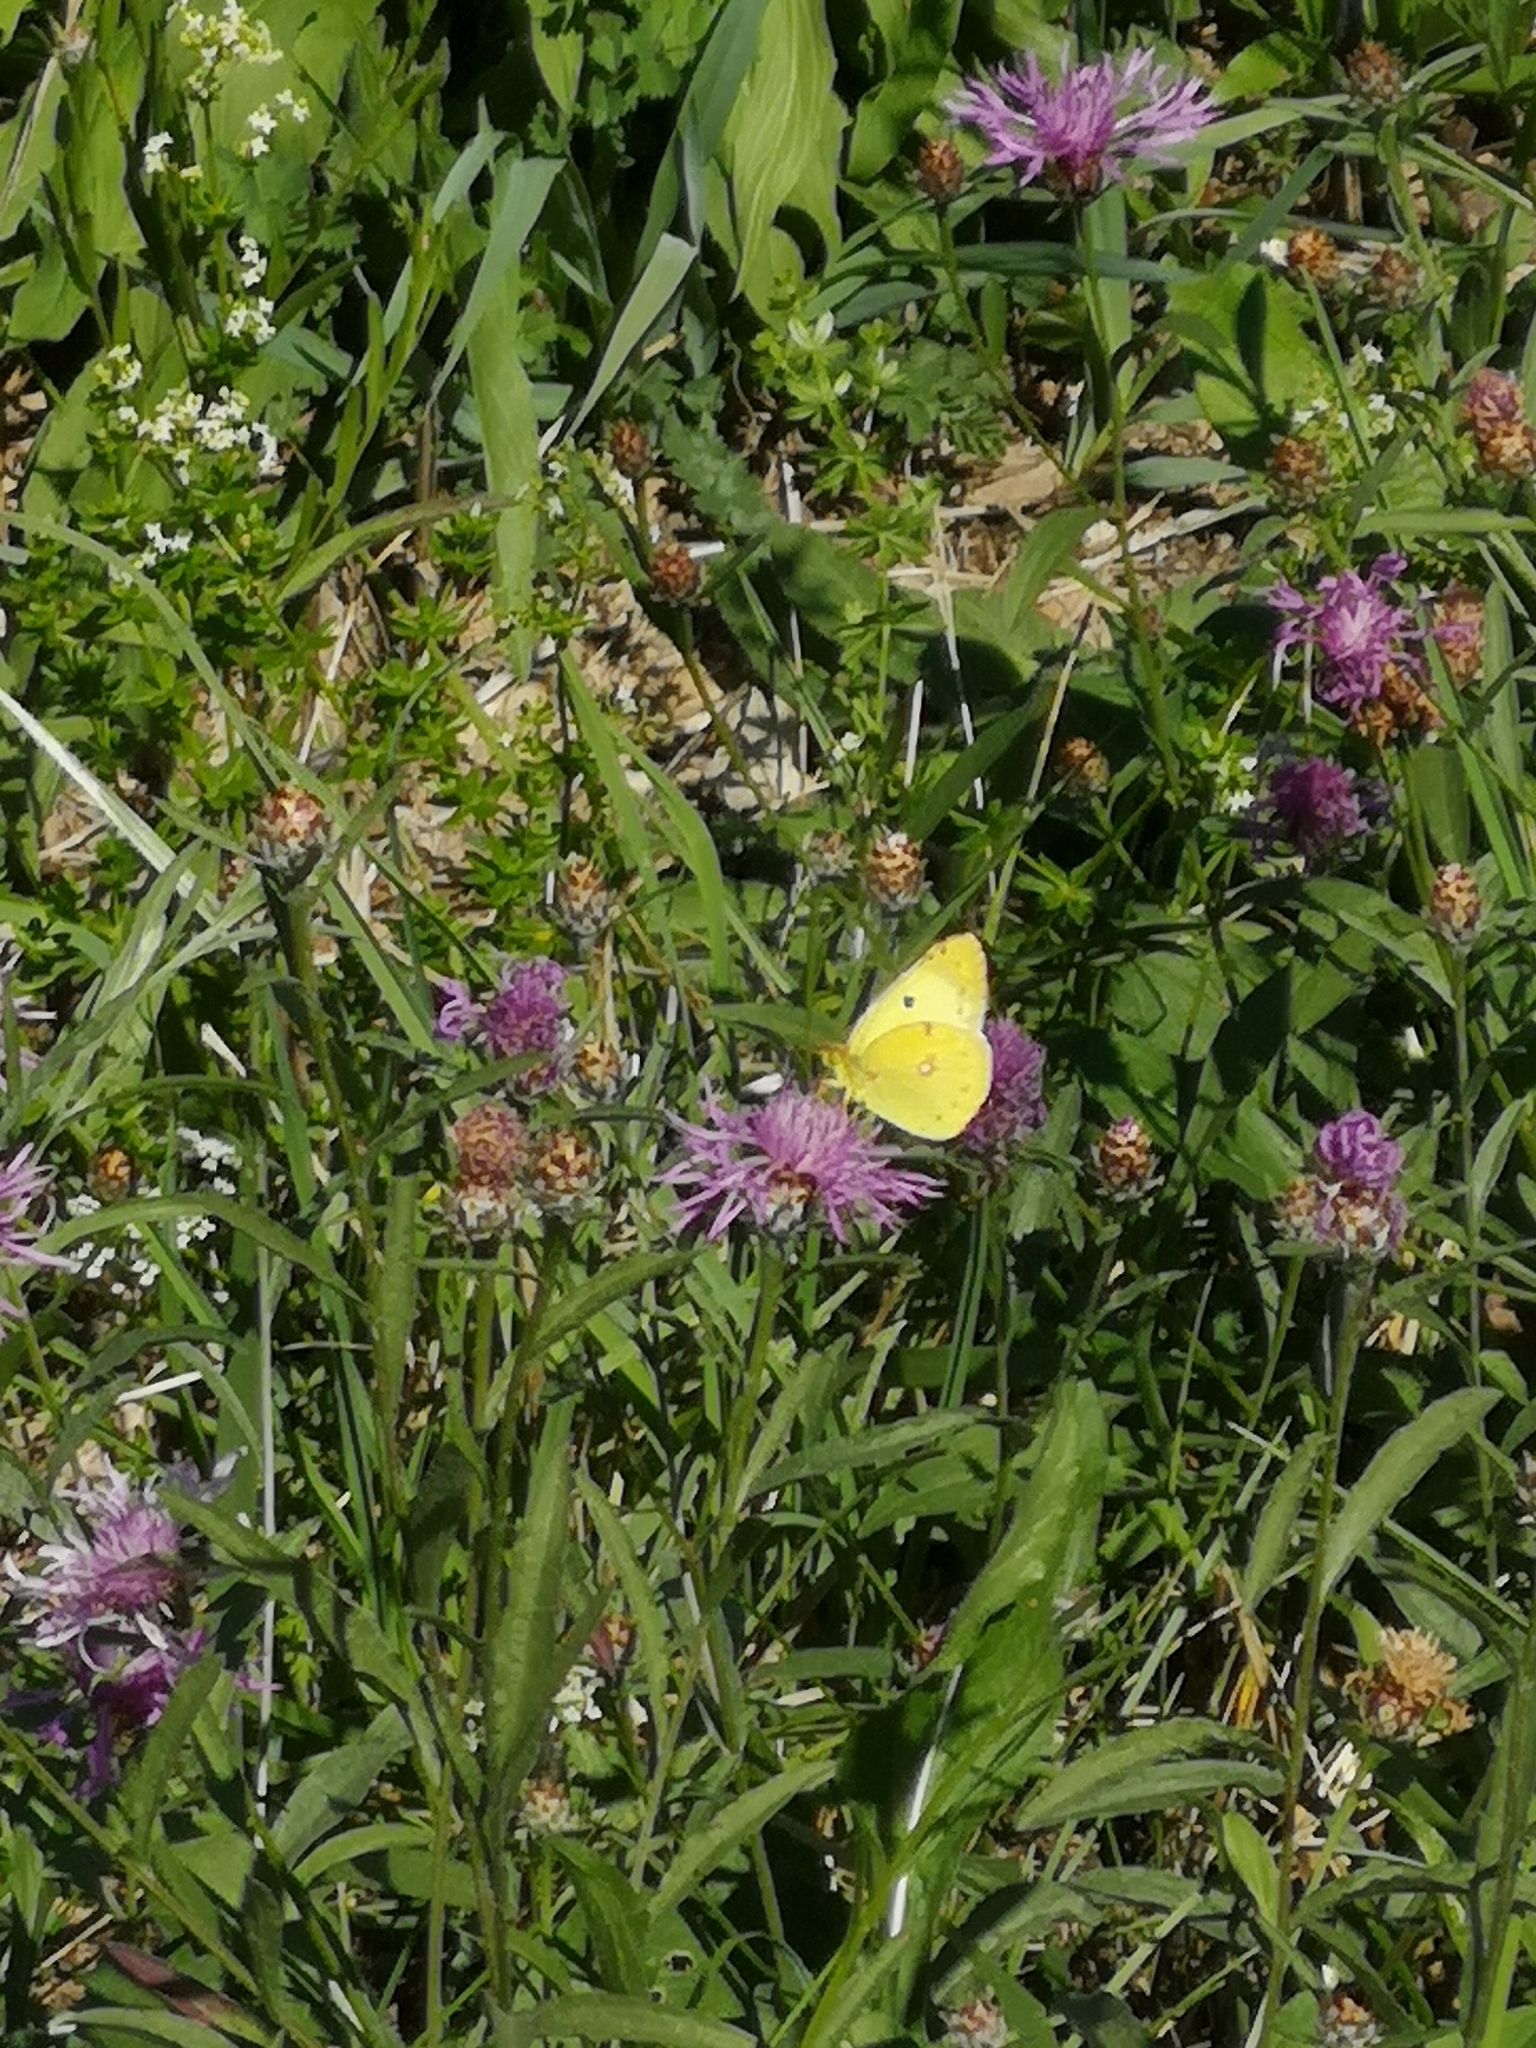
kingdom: Animalia
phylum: Arthropoda
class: Insecta
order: Lepidoptera
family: Pieridae
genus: Colias
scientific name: Colias hyale
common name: Pale clouded yellow
